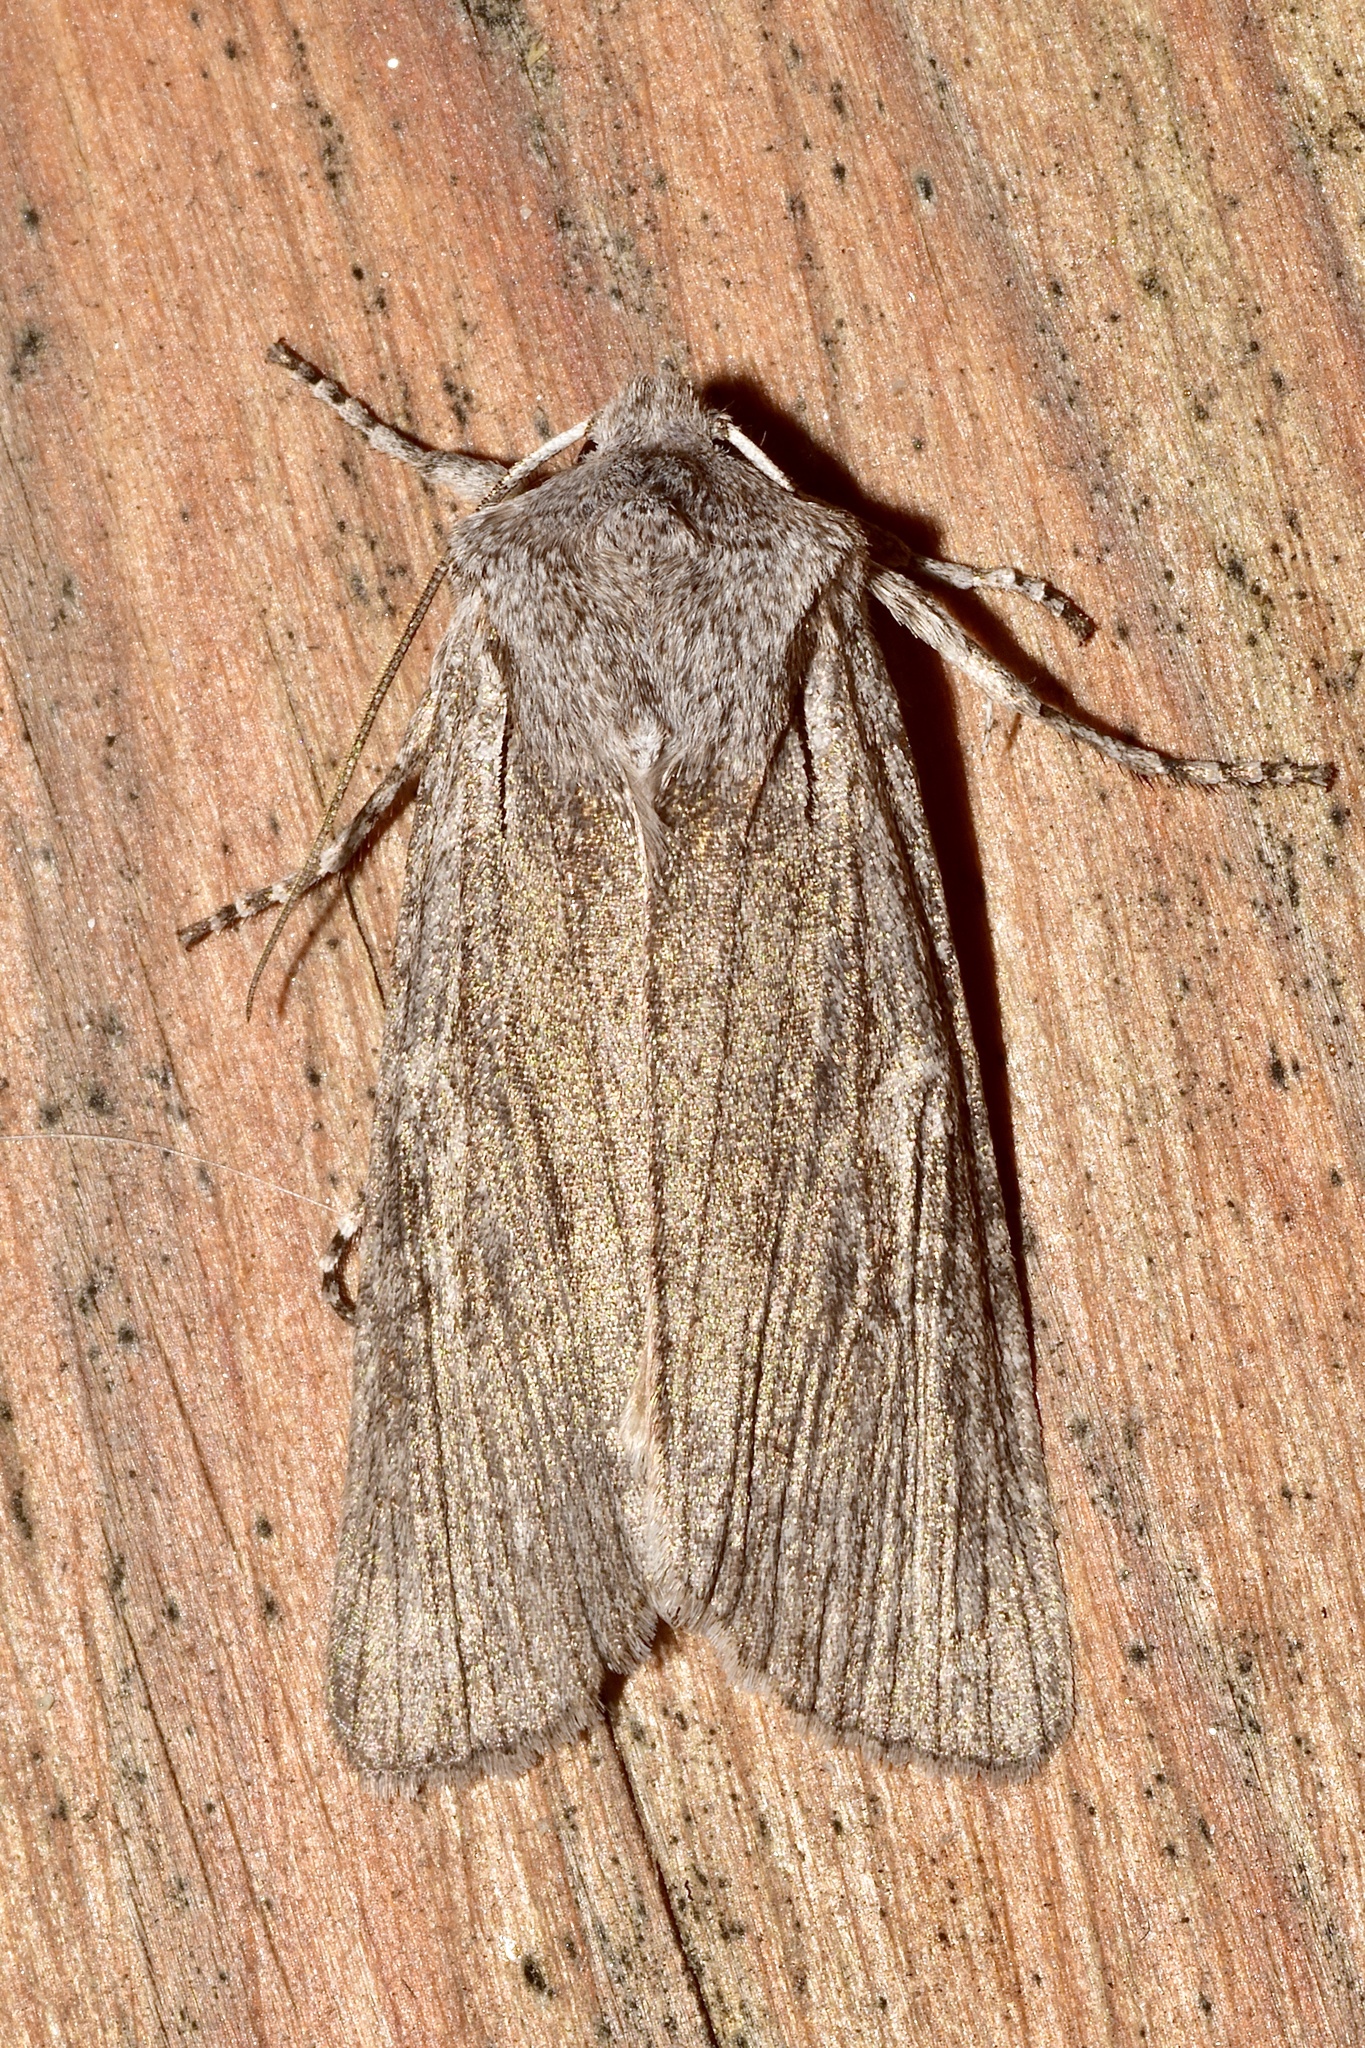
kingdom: Animalia
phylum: Arthropoda
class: Insecta
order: Lepidoptera
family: Noctuidae
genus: Lithophane
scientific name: Lithophane georgii
